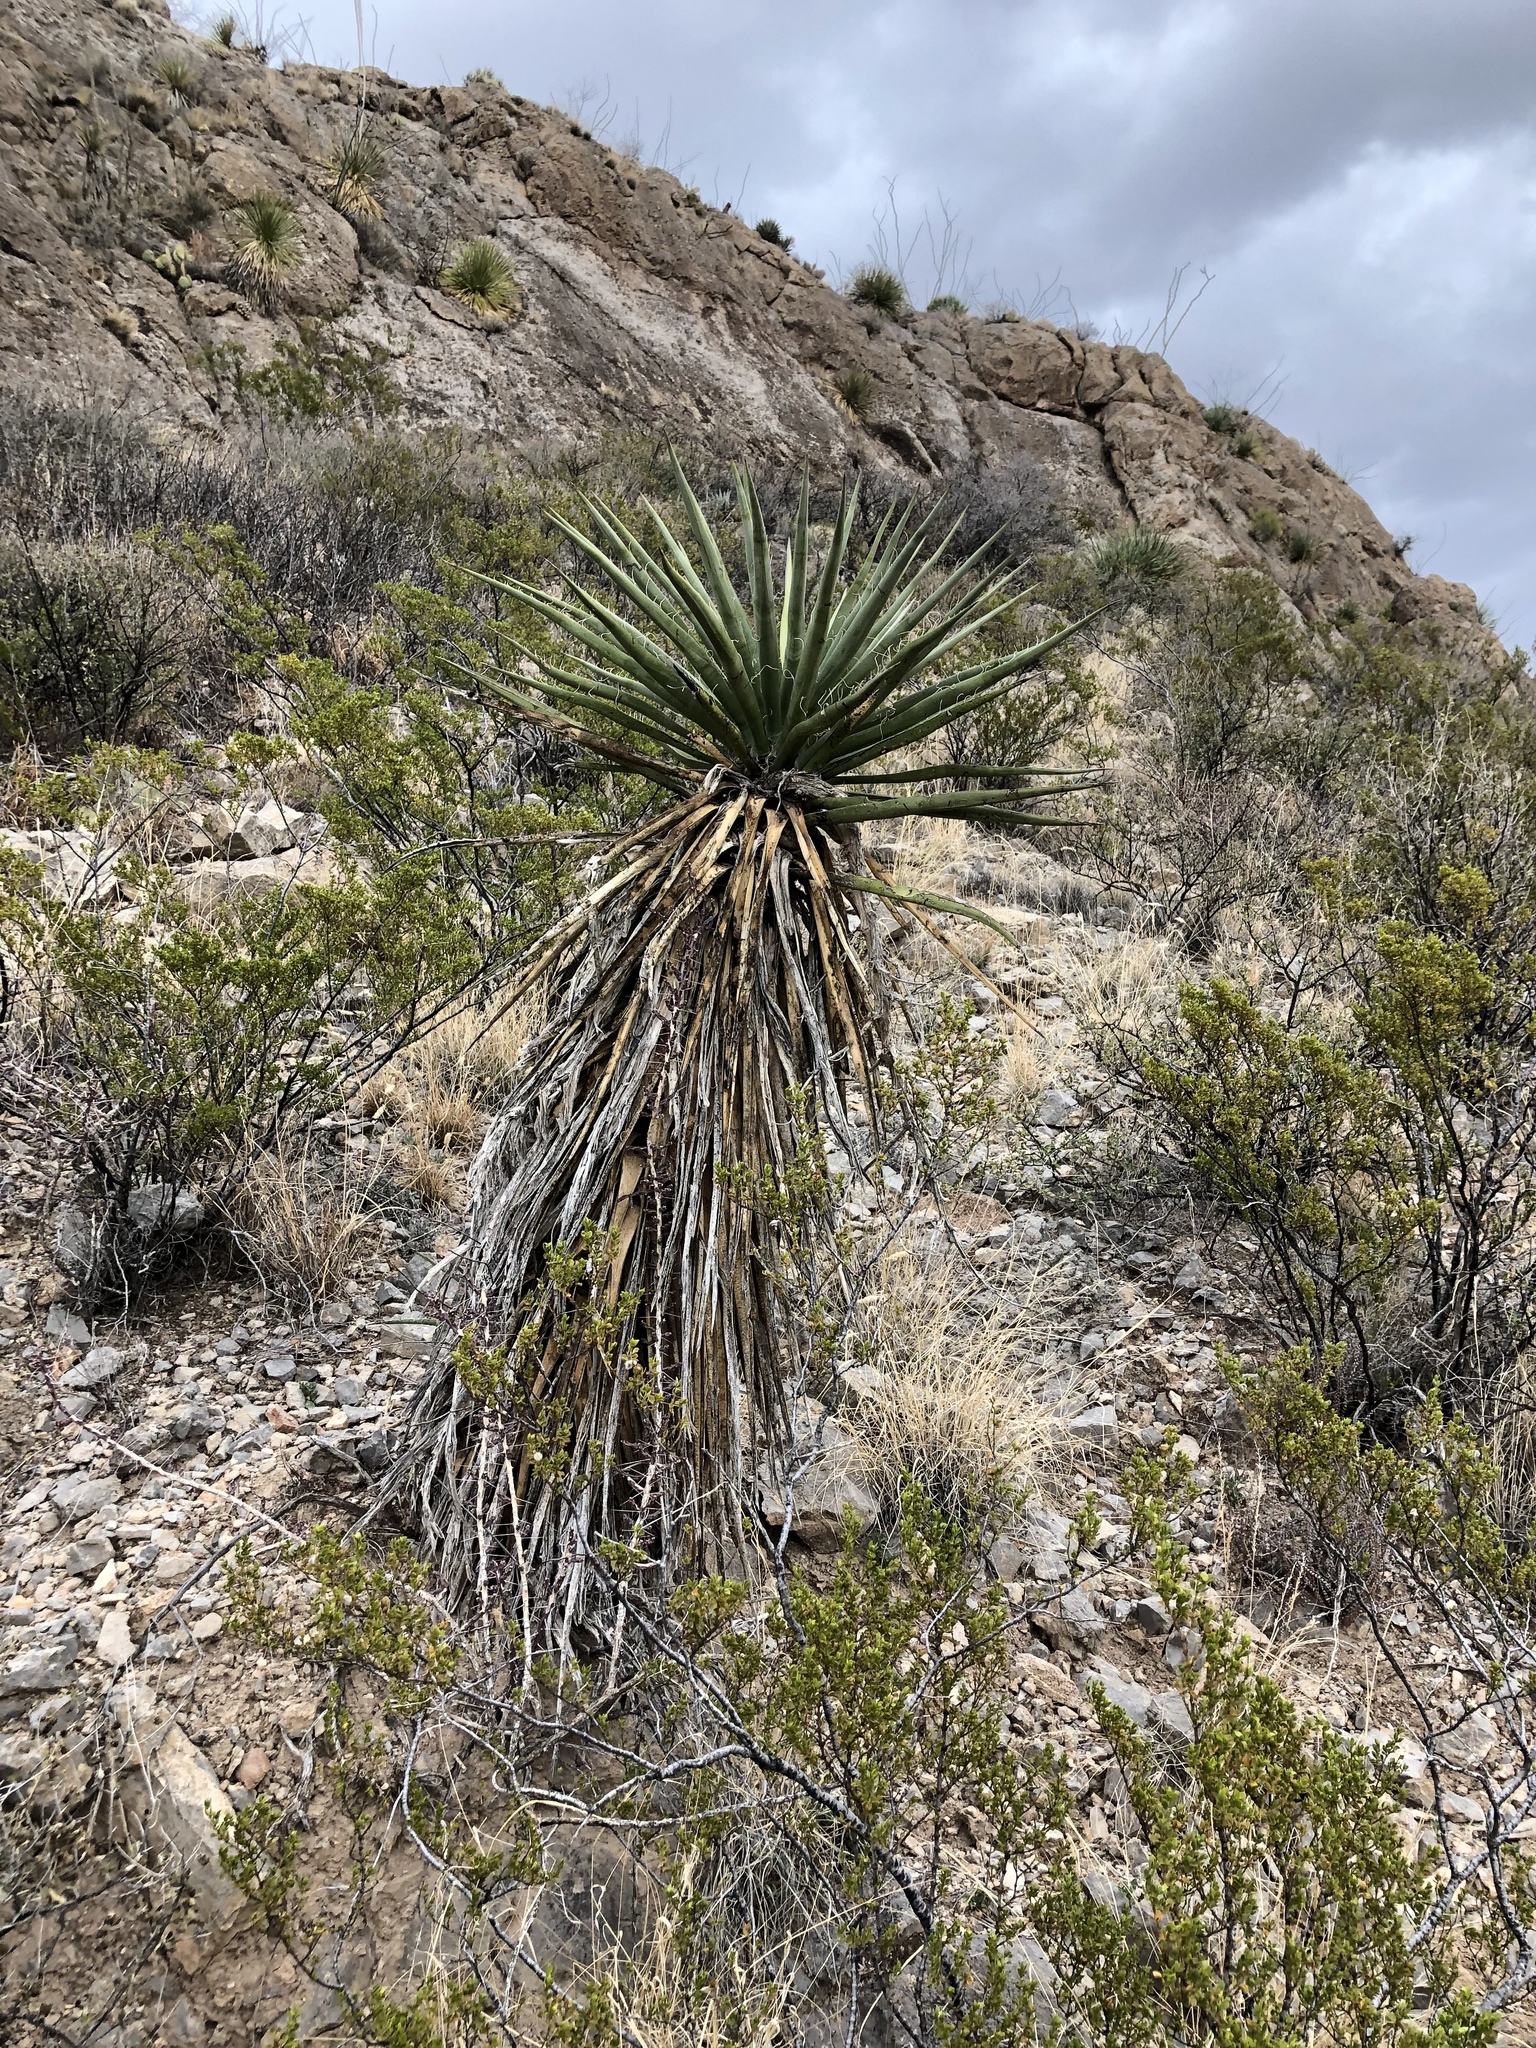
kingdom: Plantae
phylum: Tracheophyta
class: Liliopsida
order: Asparagales
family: Asparagaceae
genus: Yucca
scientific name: Yucca treculiana
